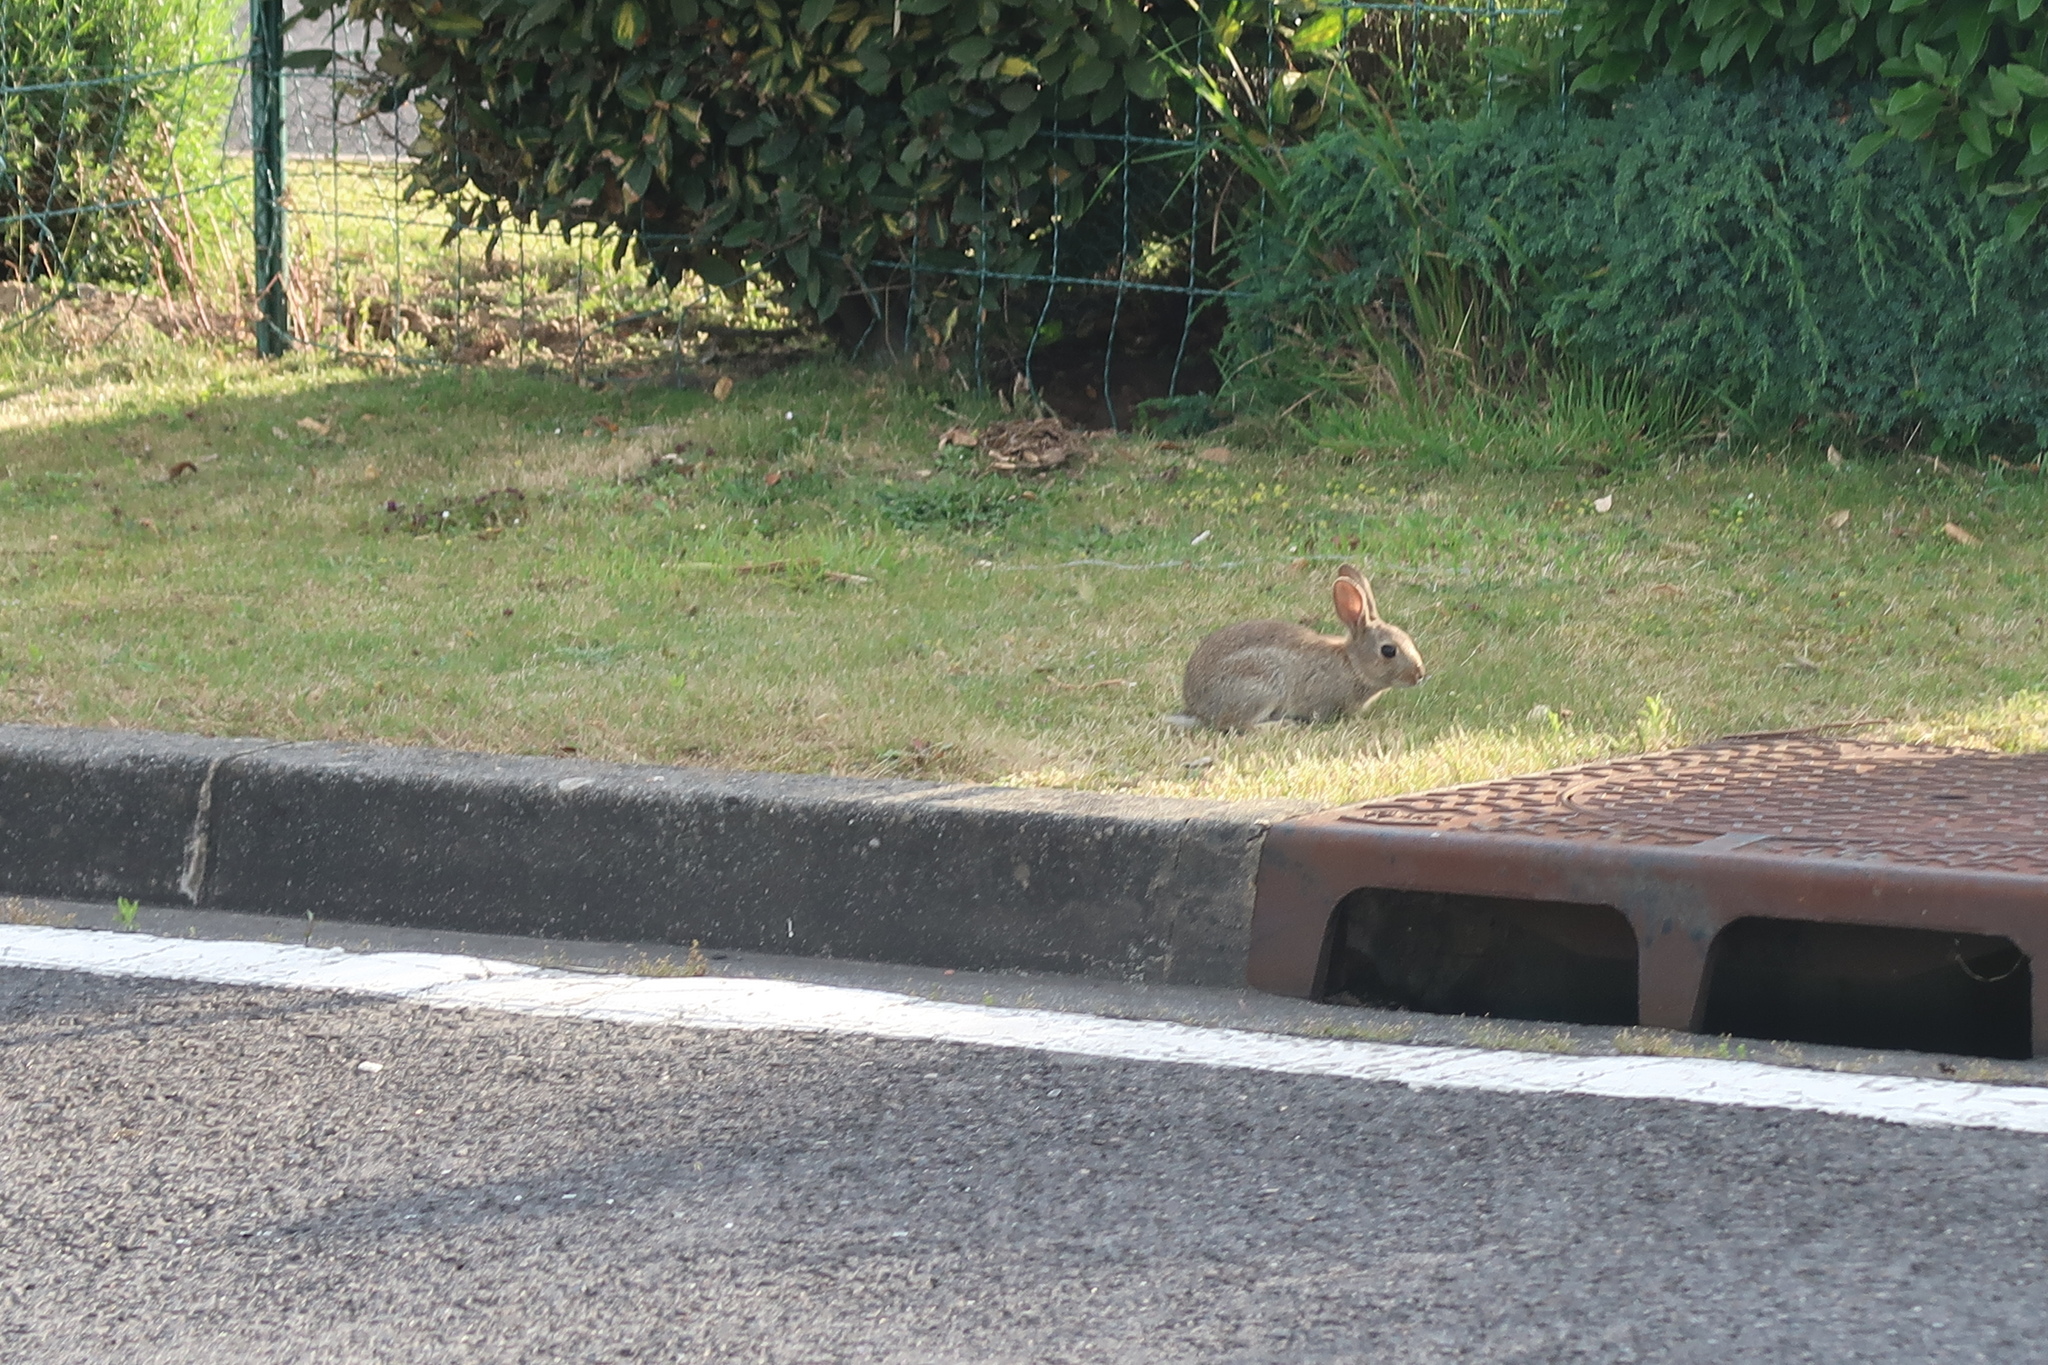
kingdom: Animalia
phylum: Chordata
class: Mammalia
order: Lagomorpha
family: Leporidae
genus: Oryctolagus
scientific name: Oryctolagus cuniculus
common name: European rabbit
